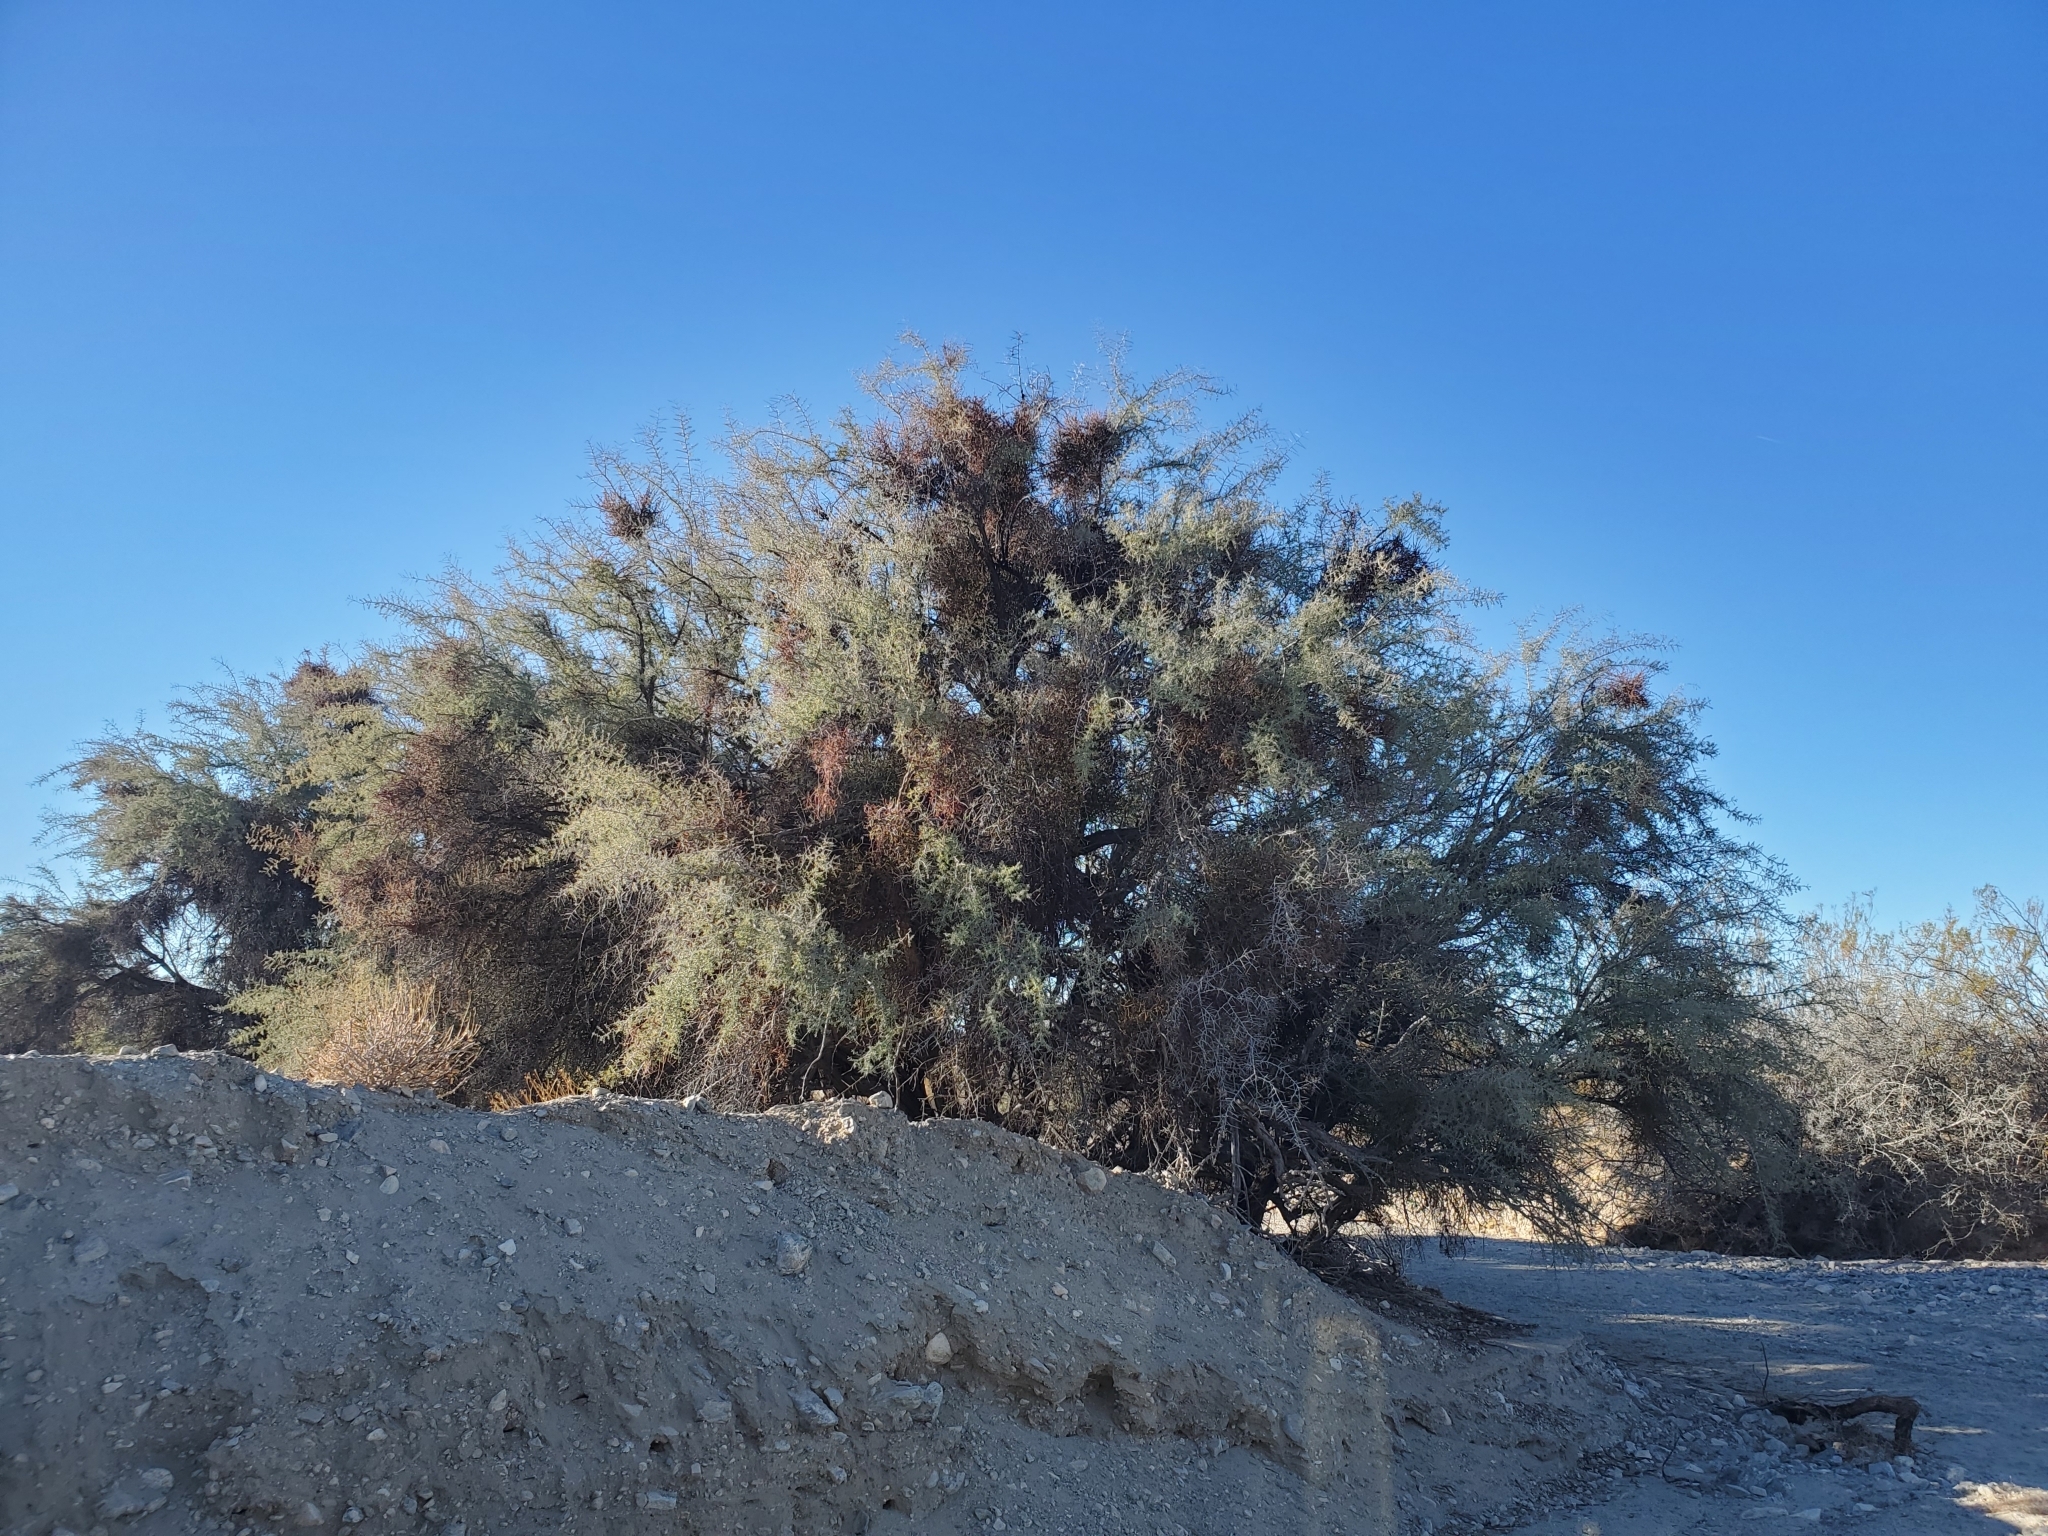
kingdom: Plantae
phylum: Tracheophyta
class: Magnoliopsida
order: Rosales
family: Rhamnaceae
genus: Condalia
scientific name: Condalia globosa
